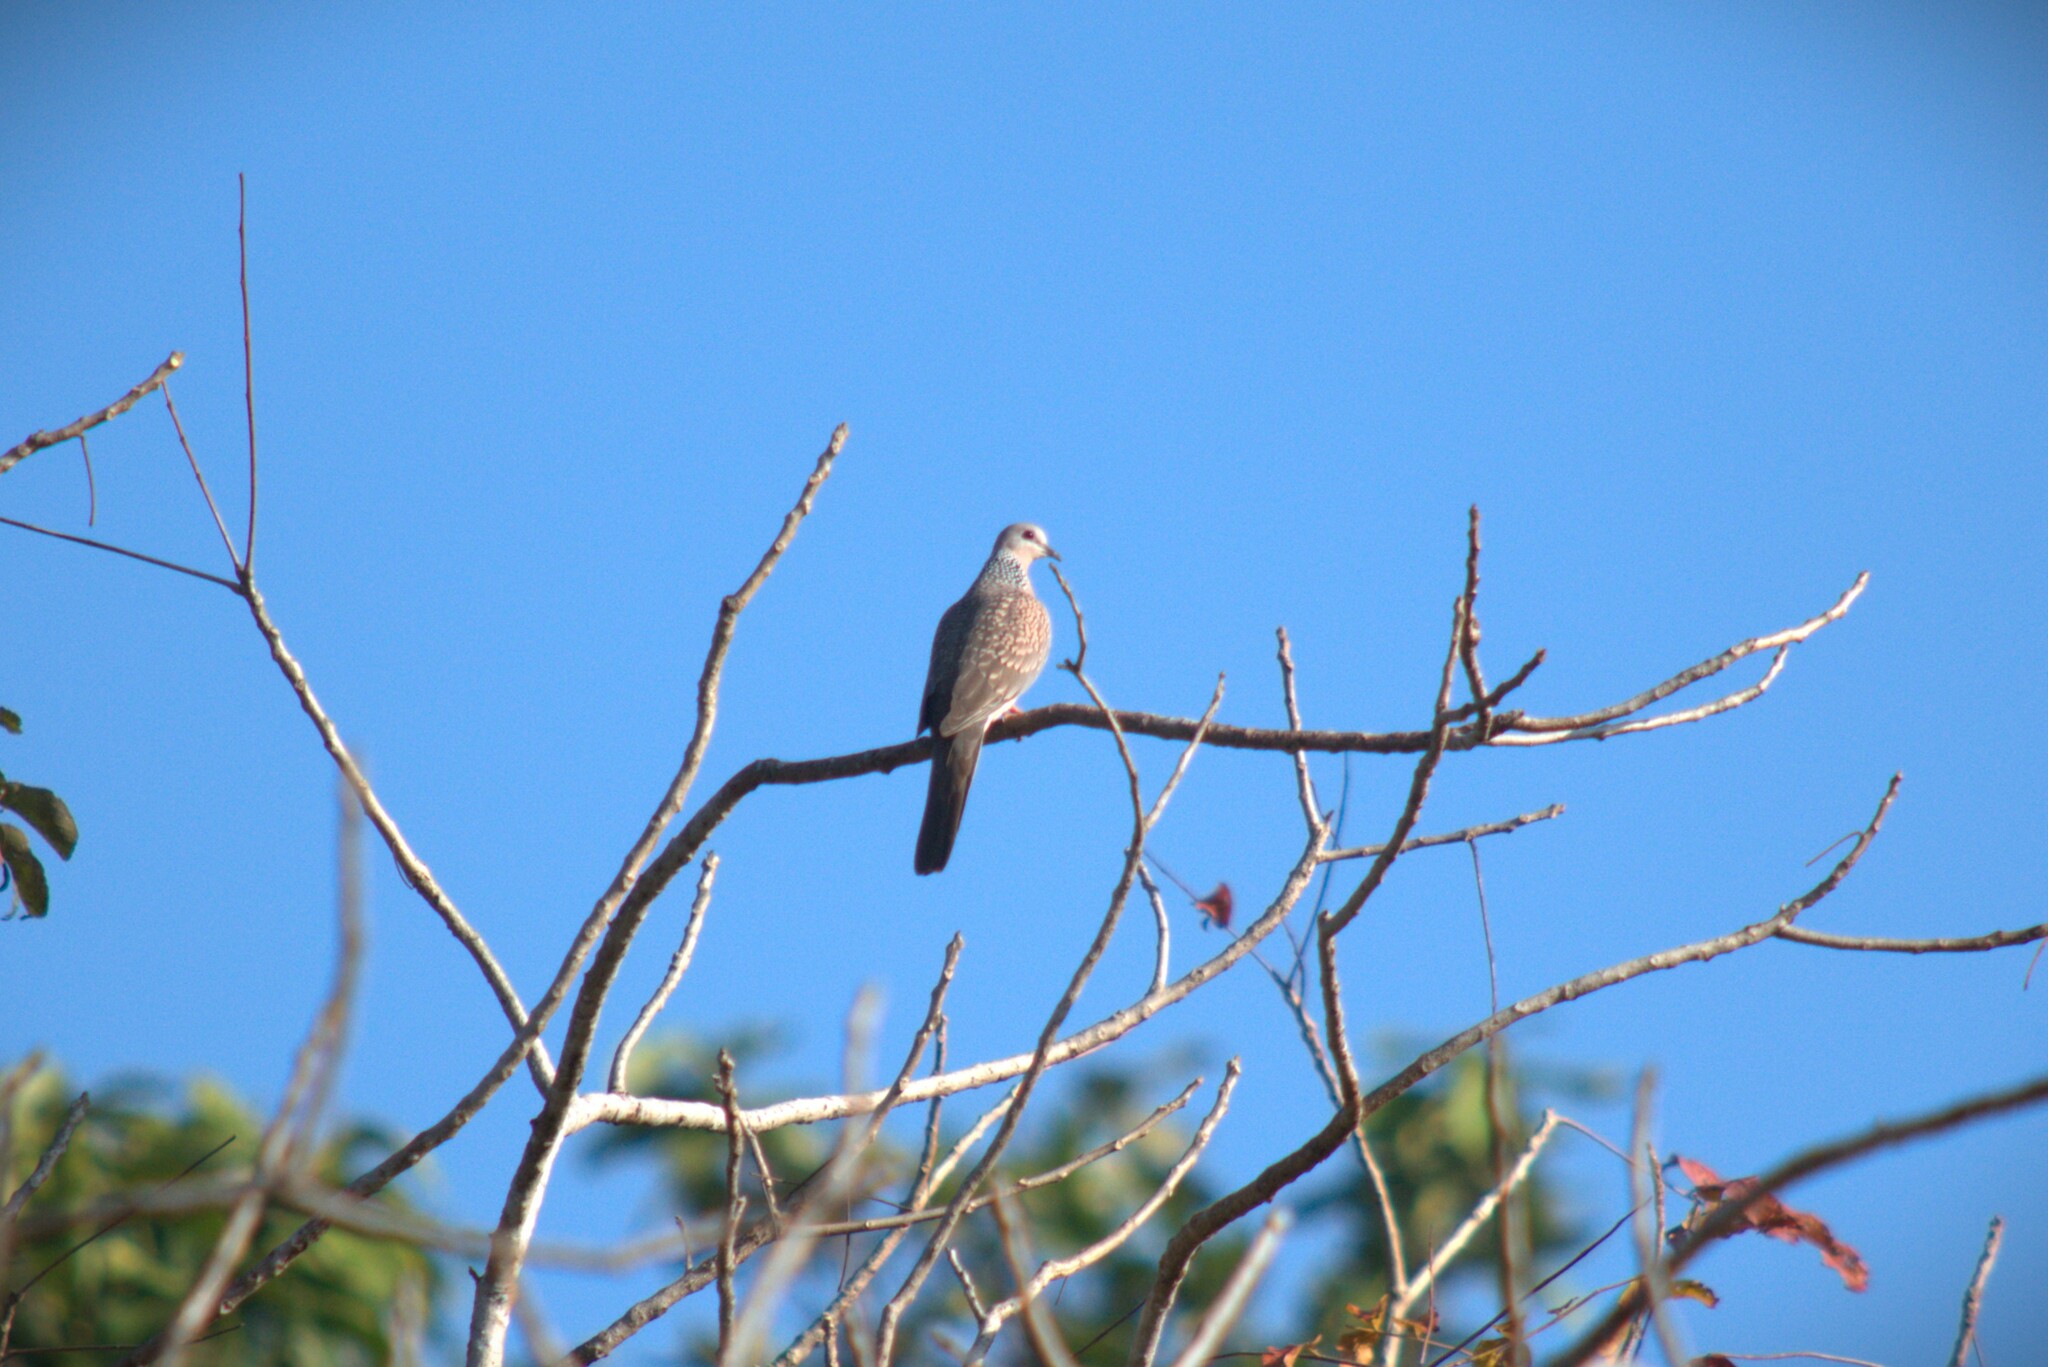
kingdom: Animalia
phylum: Chordata
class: Aves
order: Columbiformes
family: Columbidae
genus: Spilopelia
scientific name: Spilopelia chinensis
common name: Spotted dove
